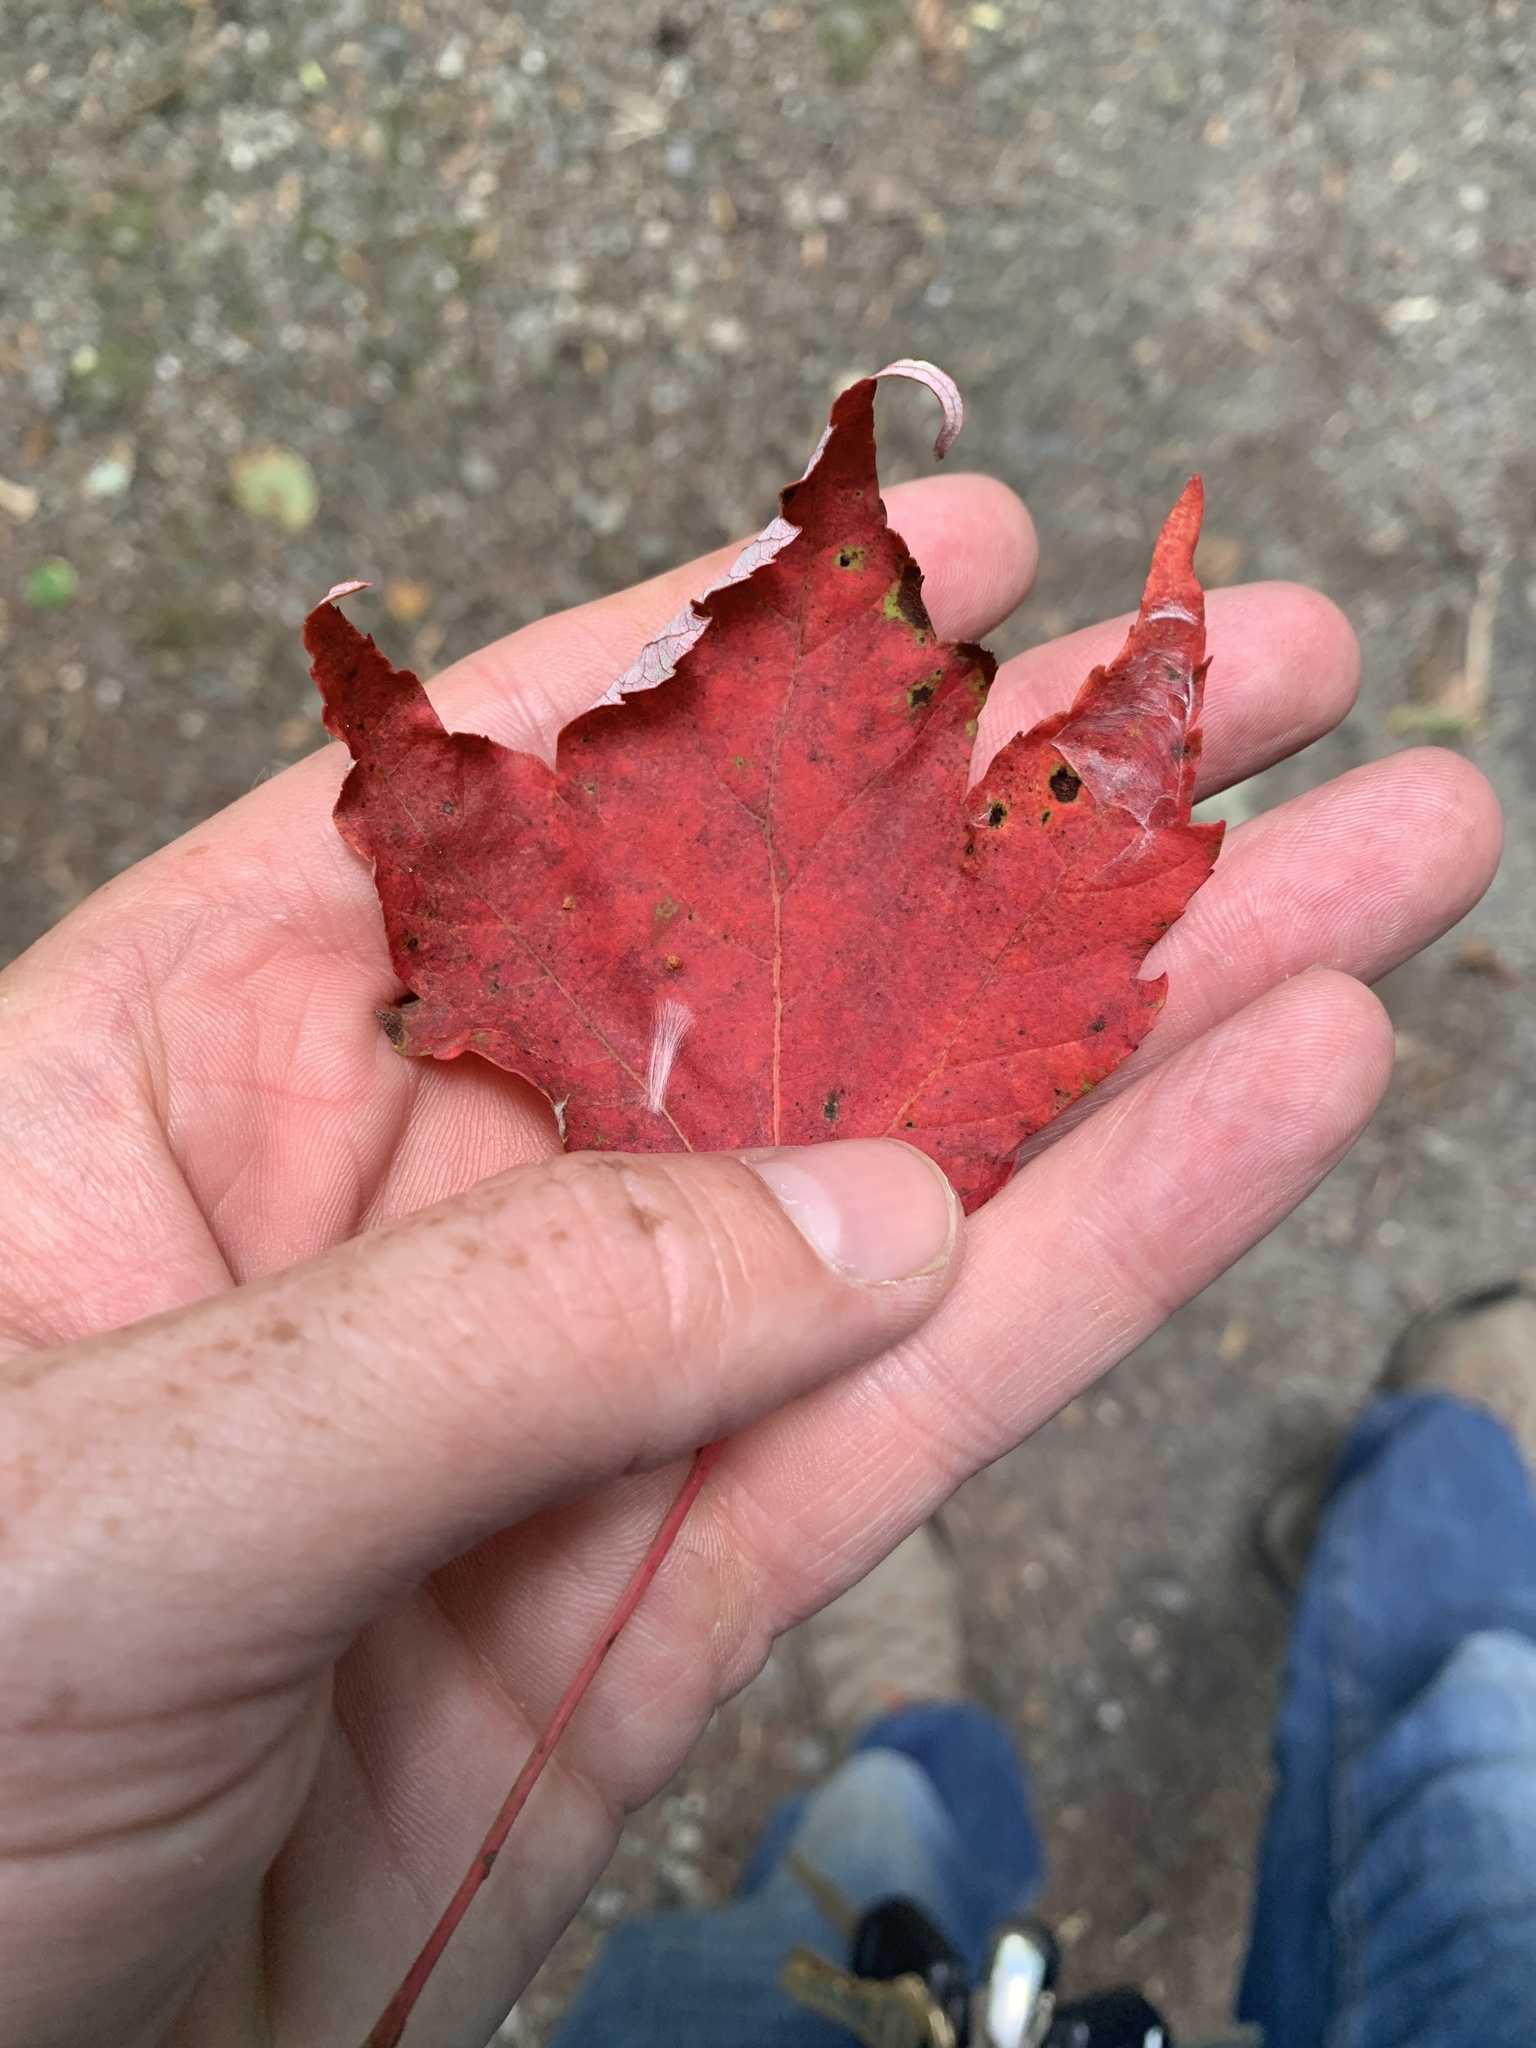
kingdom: Plantae
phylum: Tracheophyta
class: Magnoliopsida
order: Sapindales
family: Sapindaceae
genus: Acer
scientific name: Acer rubrum
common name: Red maple
